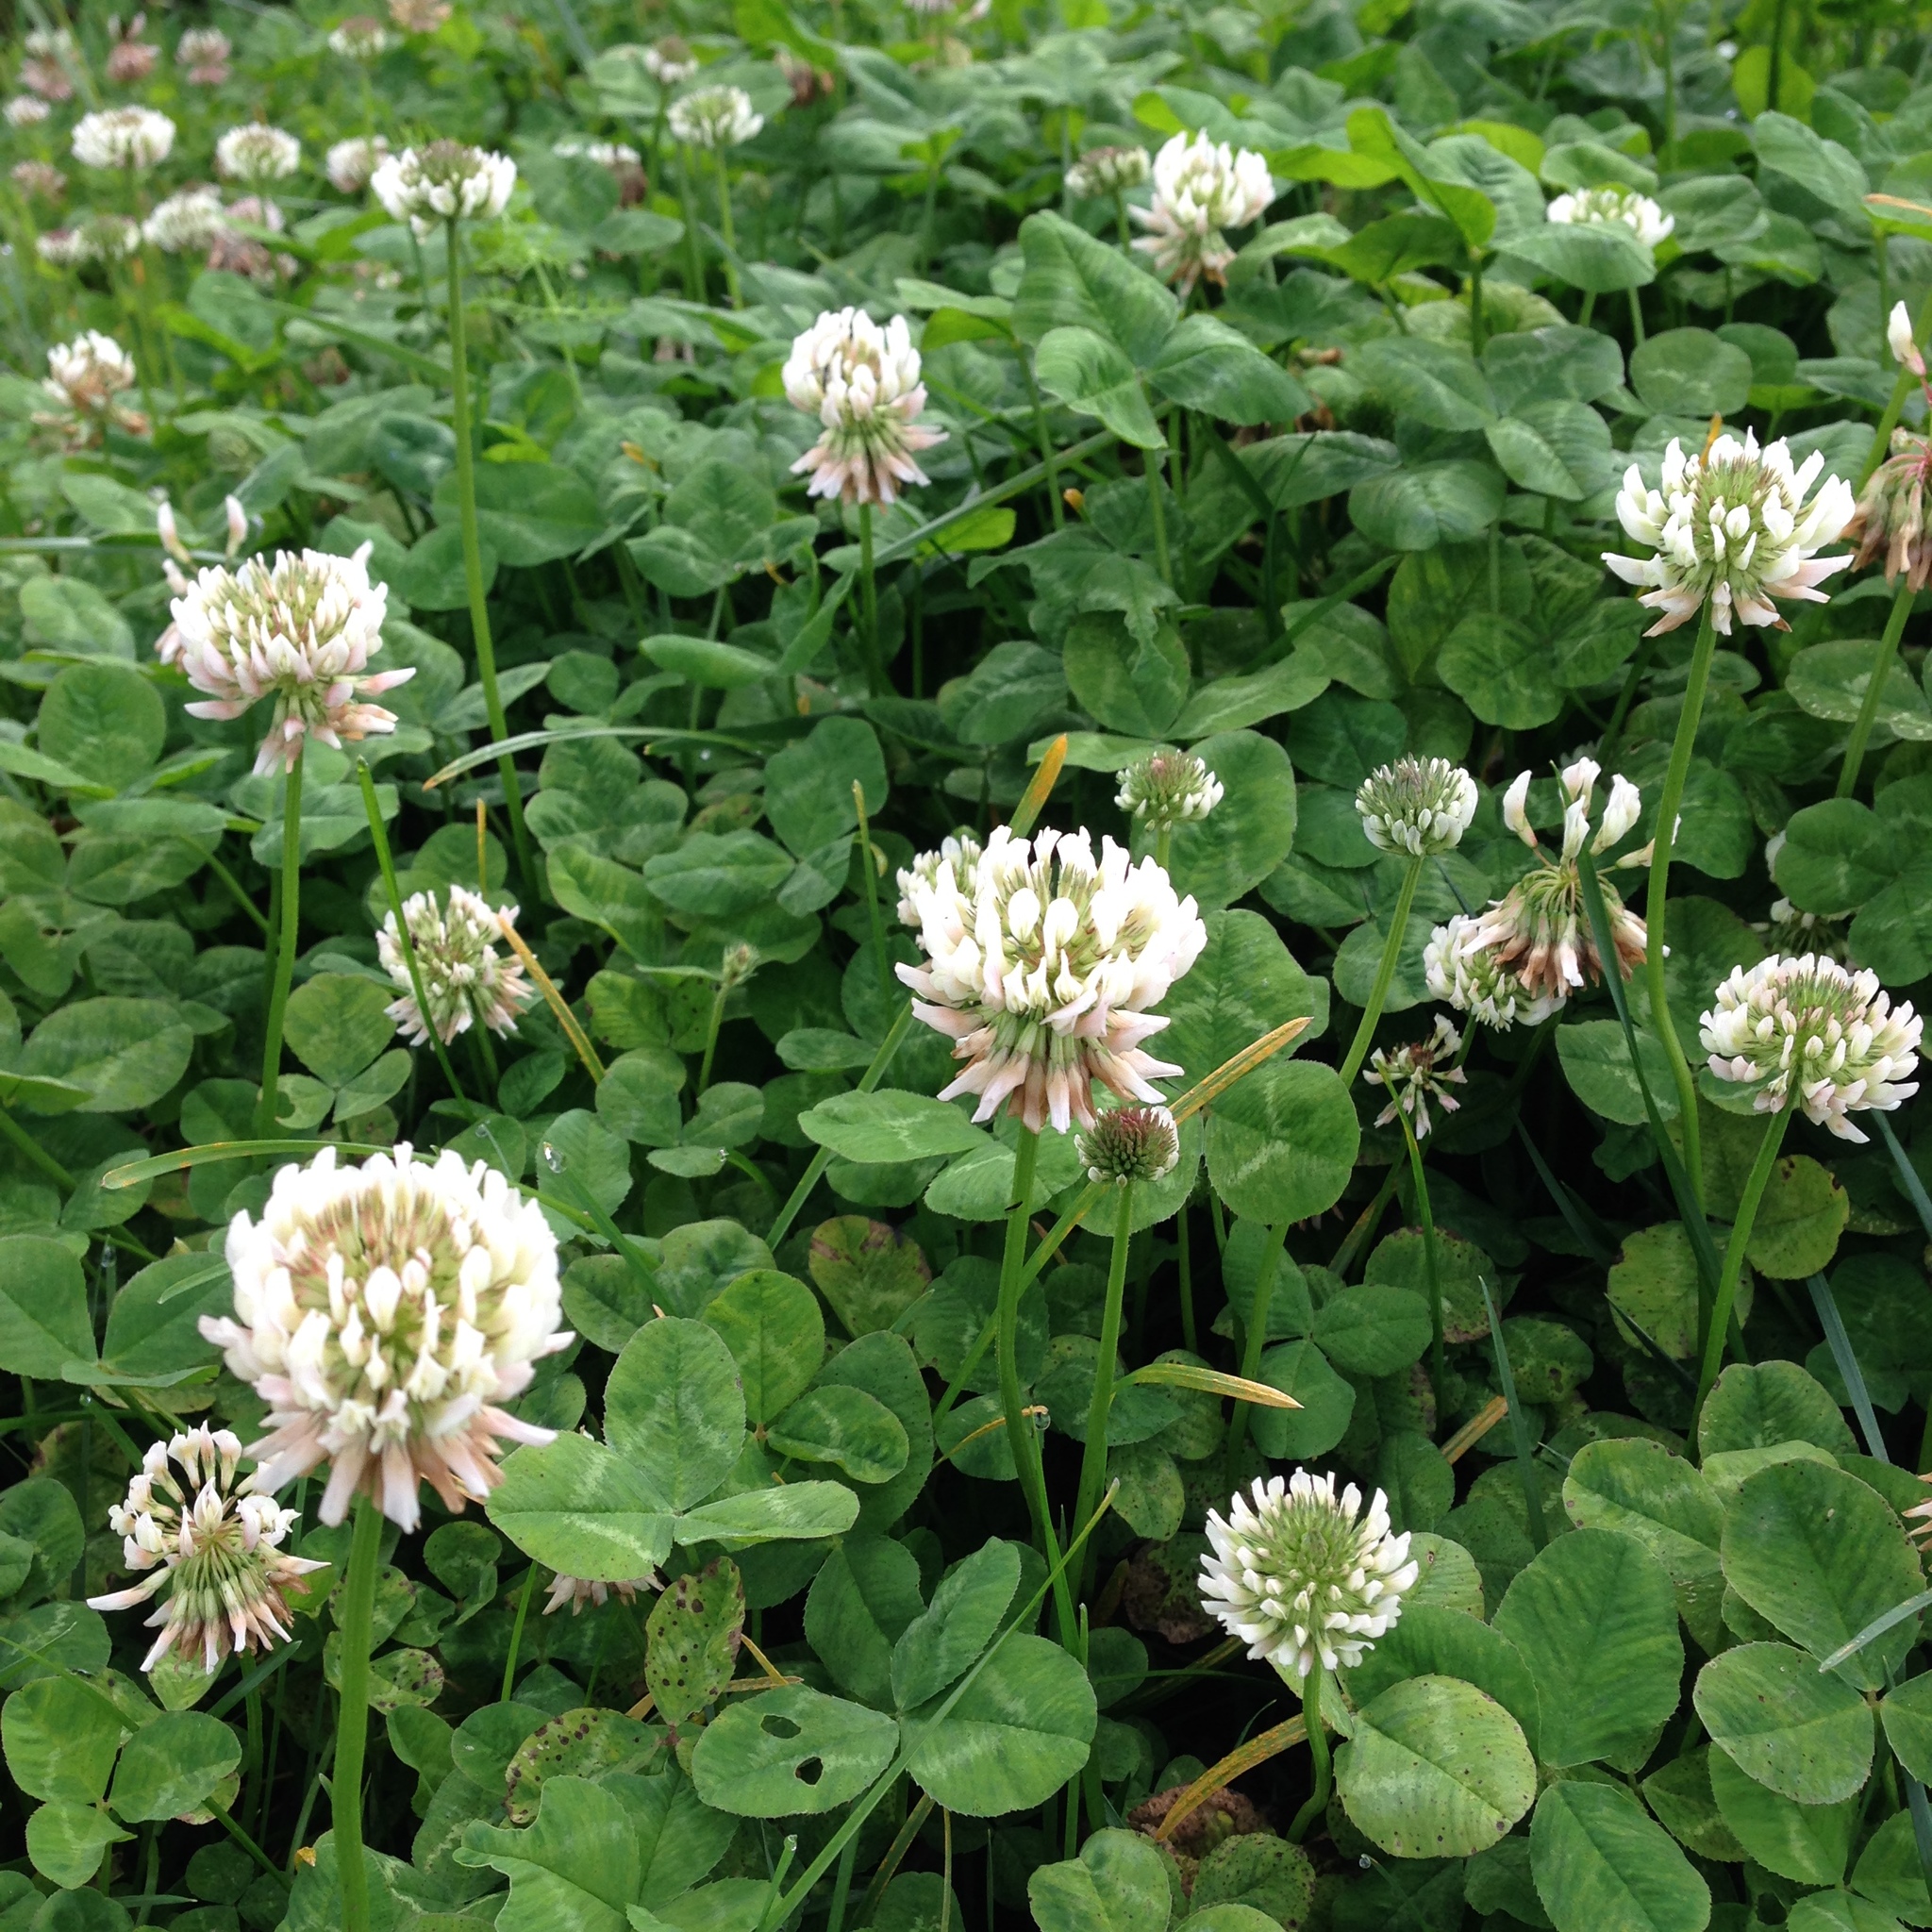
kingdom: Plantae
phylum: Tracheophyta
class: Magnoliopsida
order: Fabales
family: Fabaceae
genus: Trifolium
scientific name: Trifolium repens
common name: White clover
